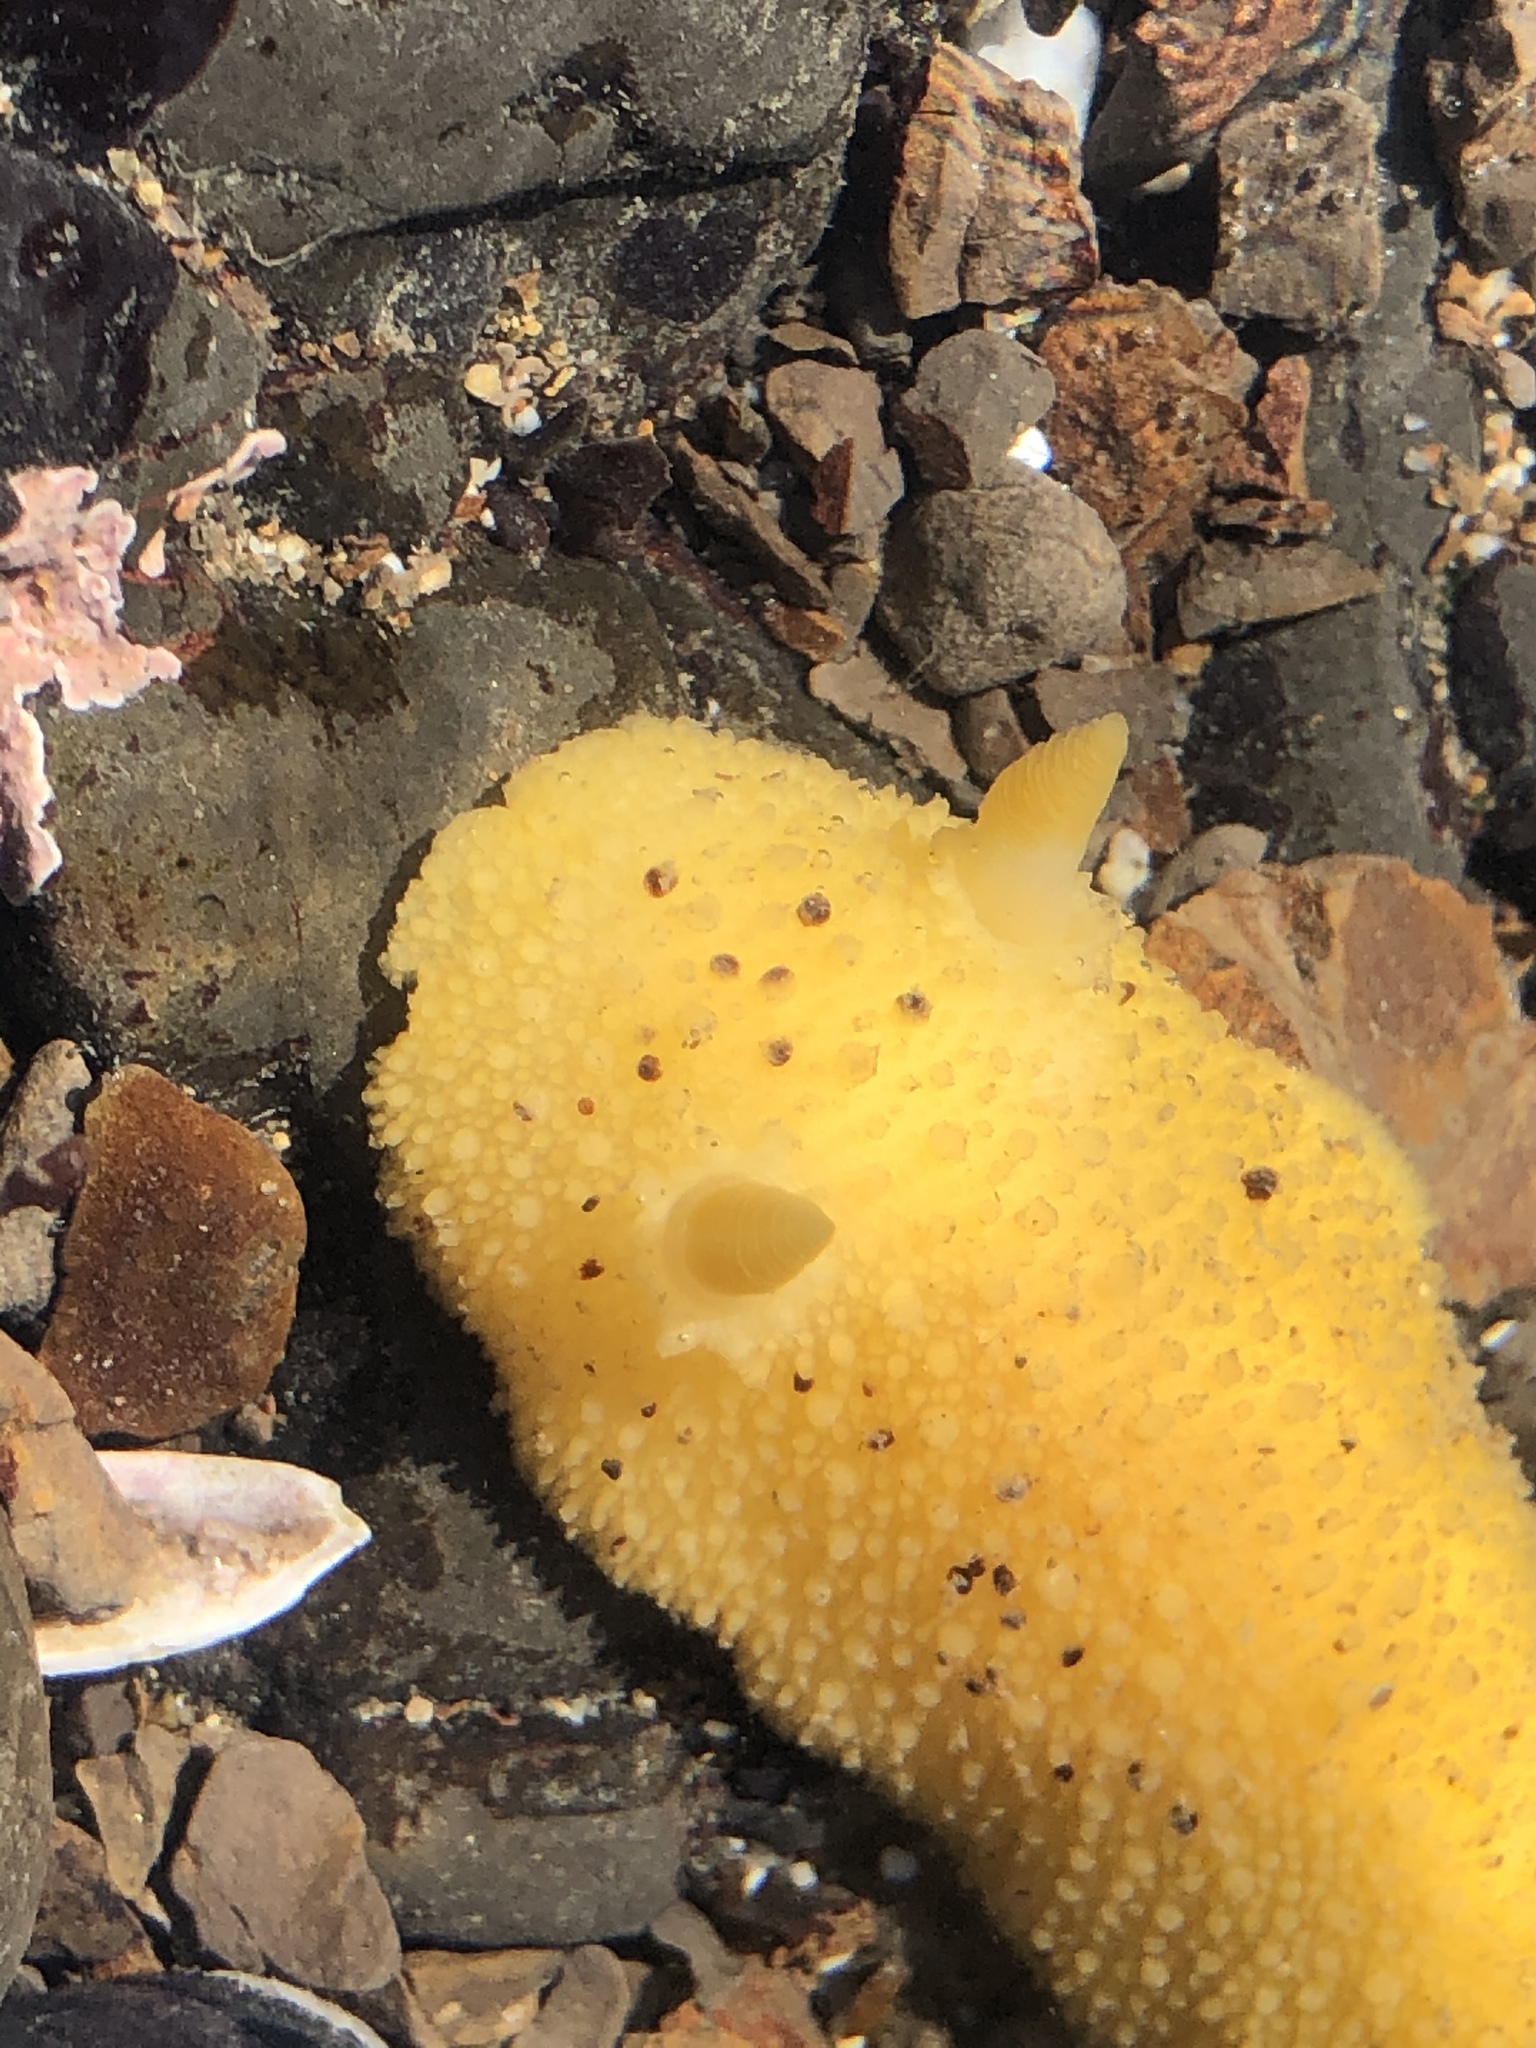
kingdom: Animalia
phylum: Mollusca
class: Gastropoda
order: Nudibranchia
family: Dorididae
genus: Doris
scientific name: Doris montereyensis
